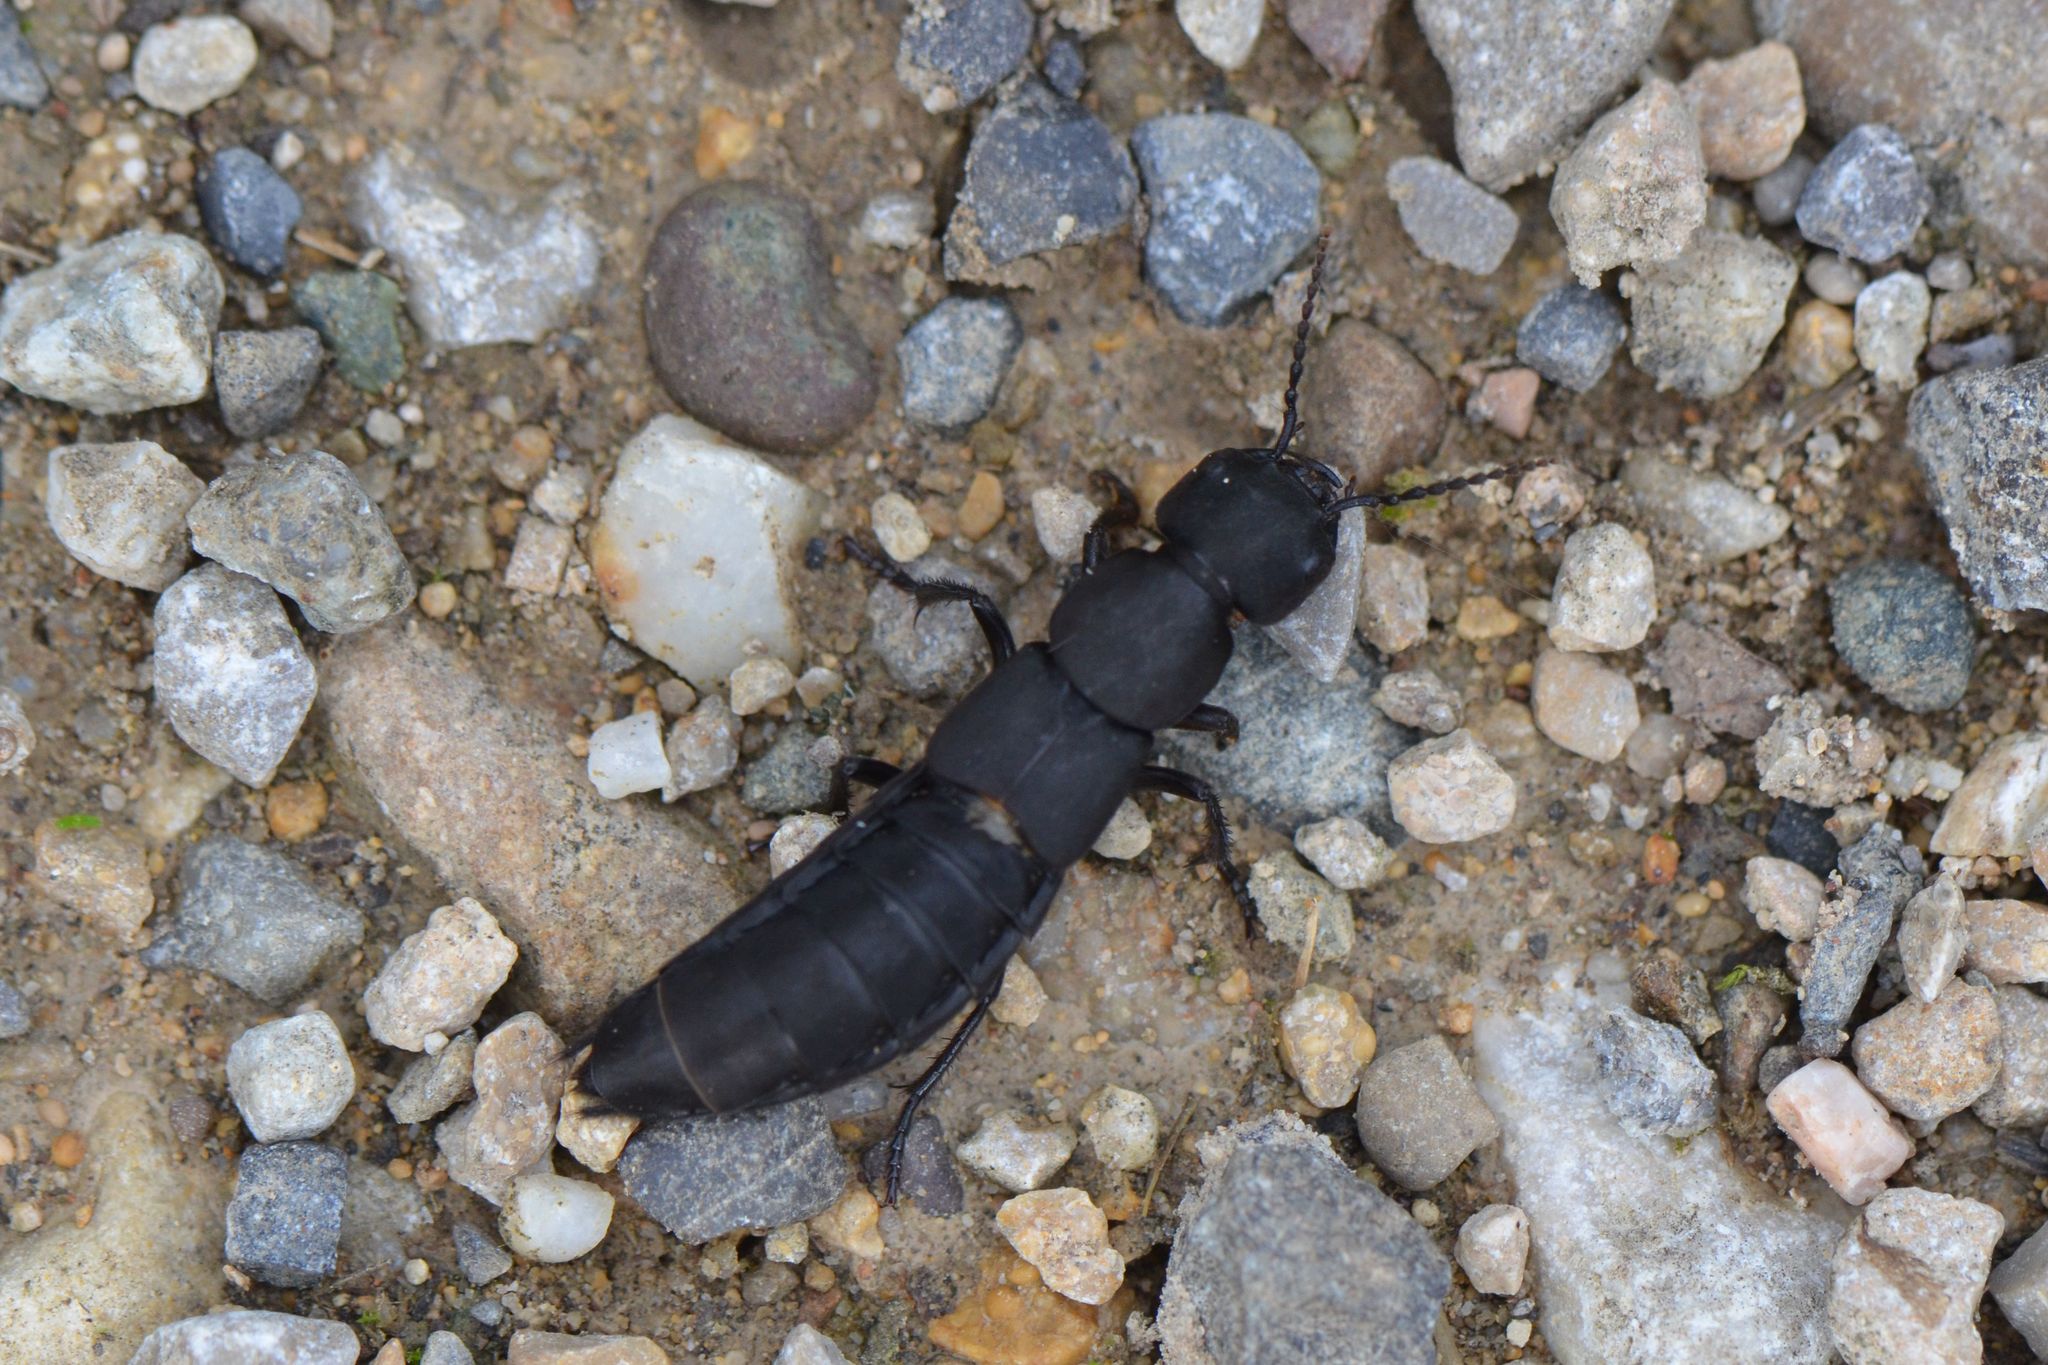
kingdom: Animalia
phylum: Arthropoda
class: Insecta
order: Coleoptera
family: Staphylinidae
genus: Ocypus
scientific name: Ocypus olens
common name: Devil's coach-horse
